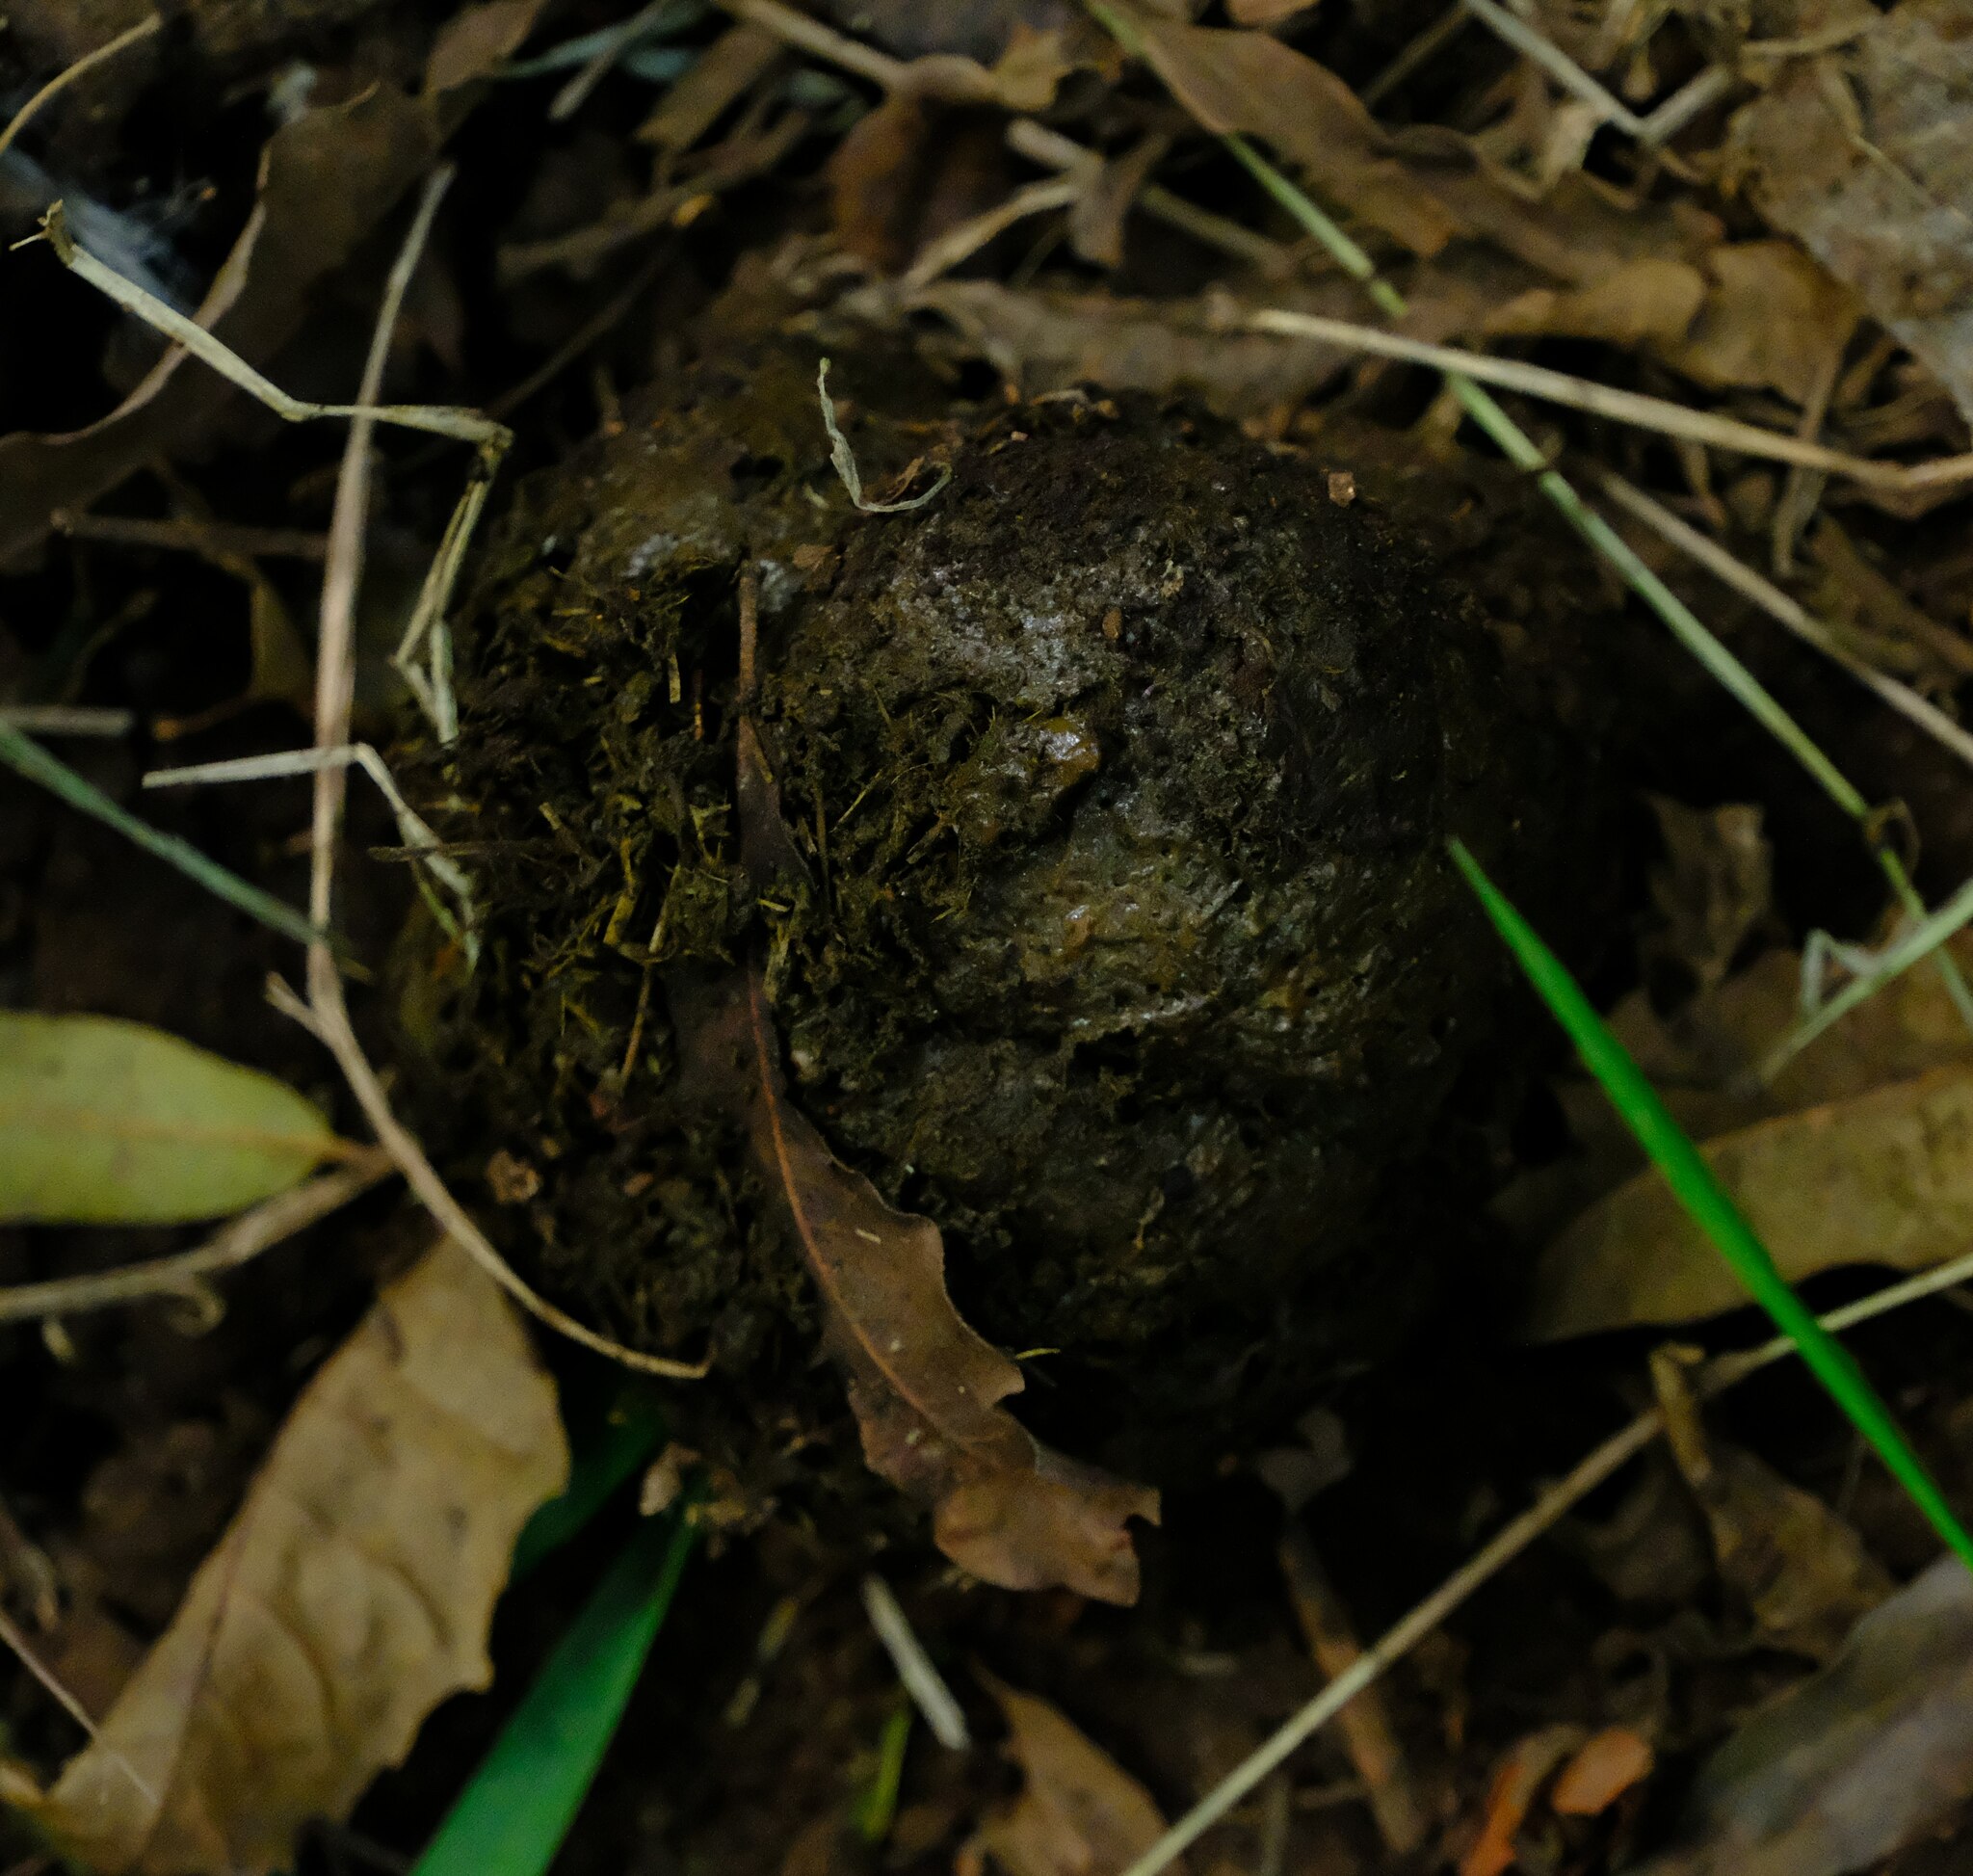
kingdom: Animalia
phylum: Chordata
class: Mammalia
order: Primates
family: Hominidae
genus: Gorilla
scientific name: Gorilla beringei
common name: Eastern gorilla
